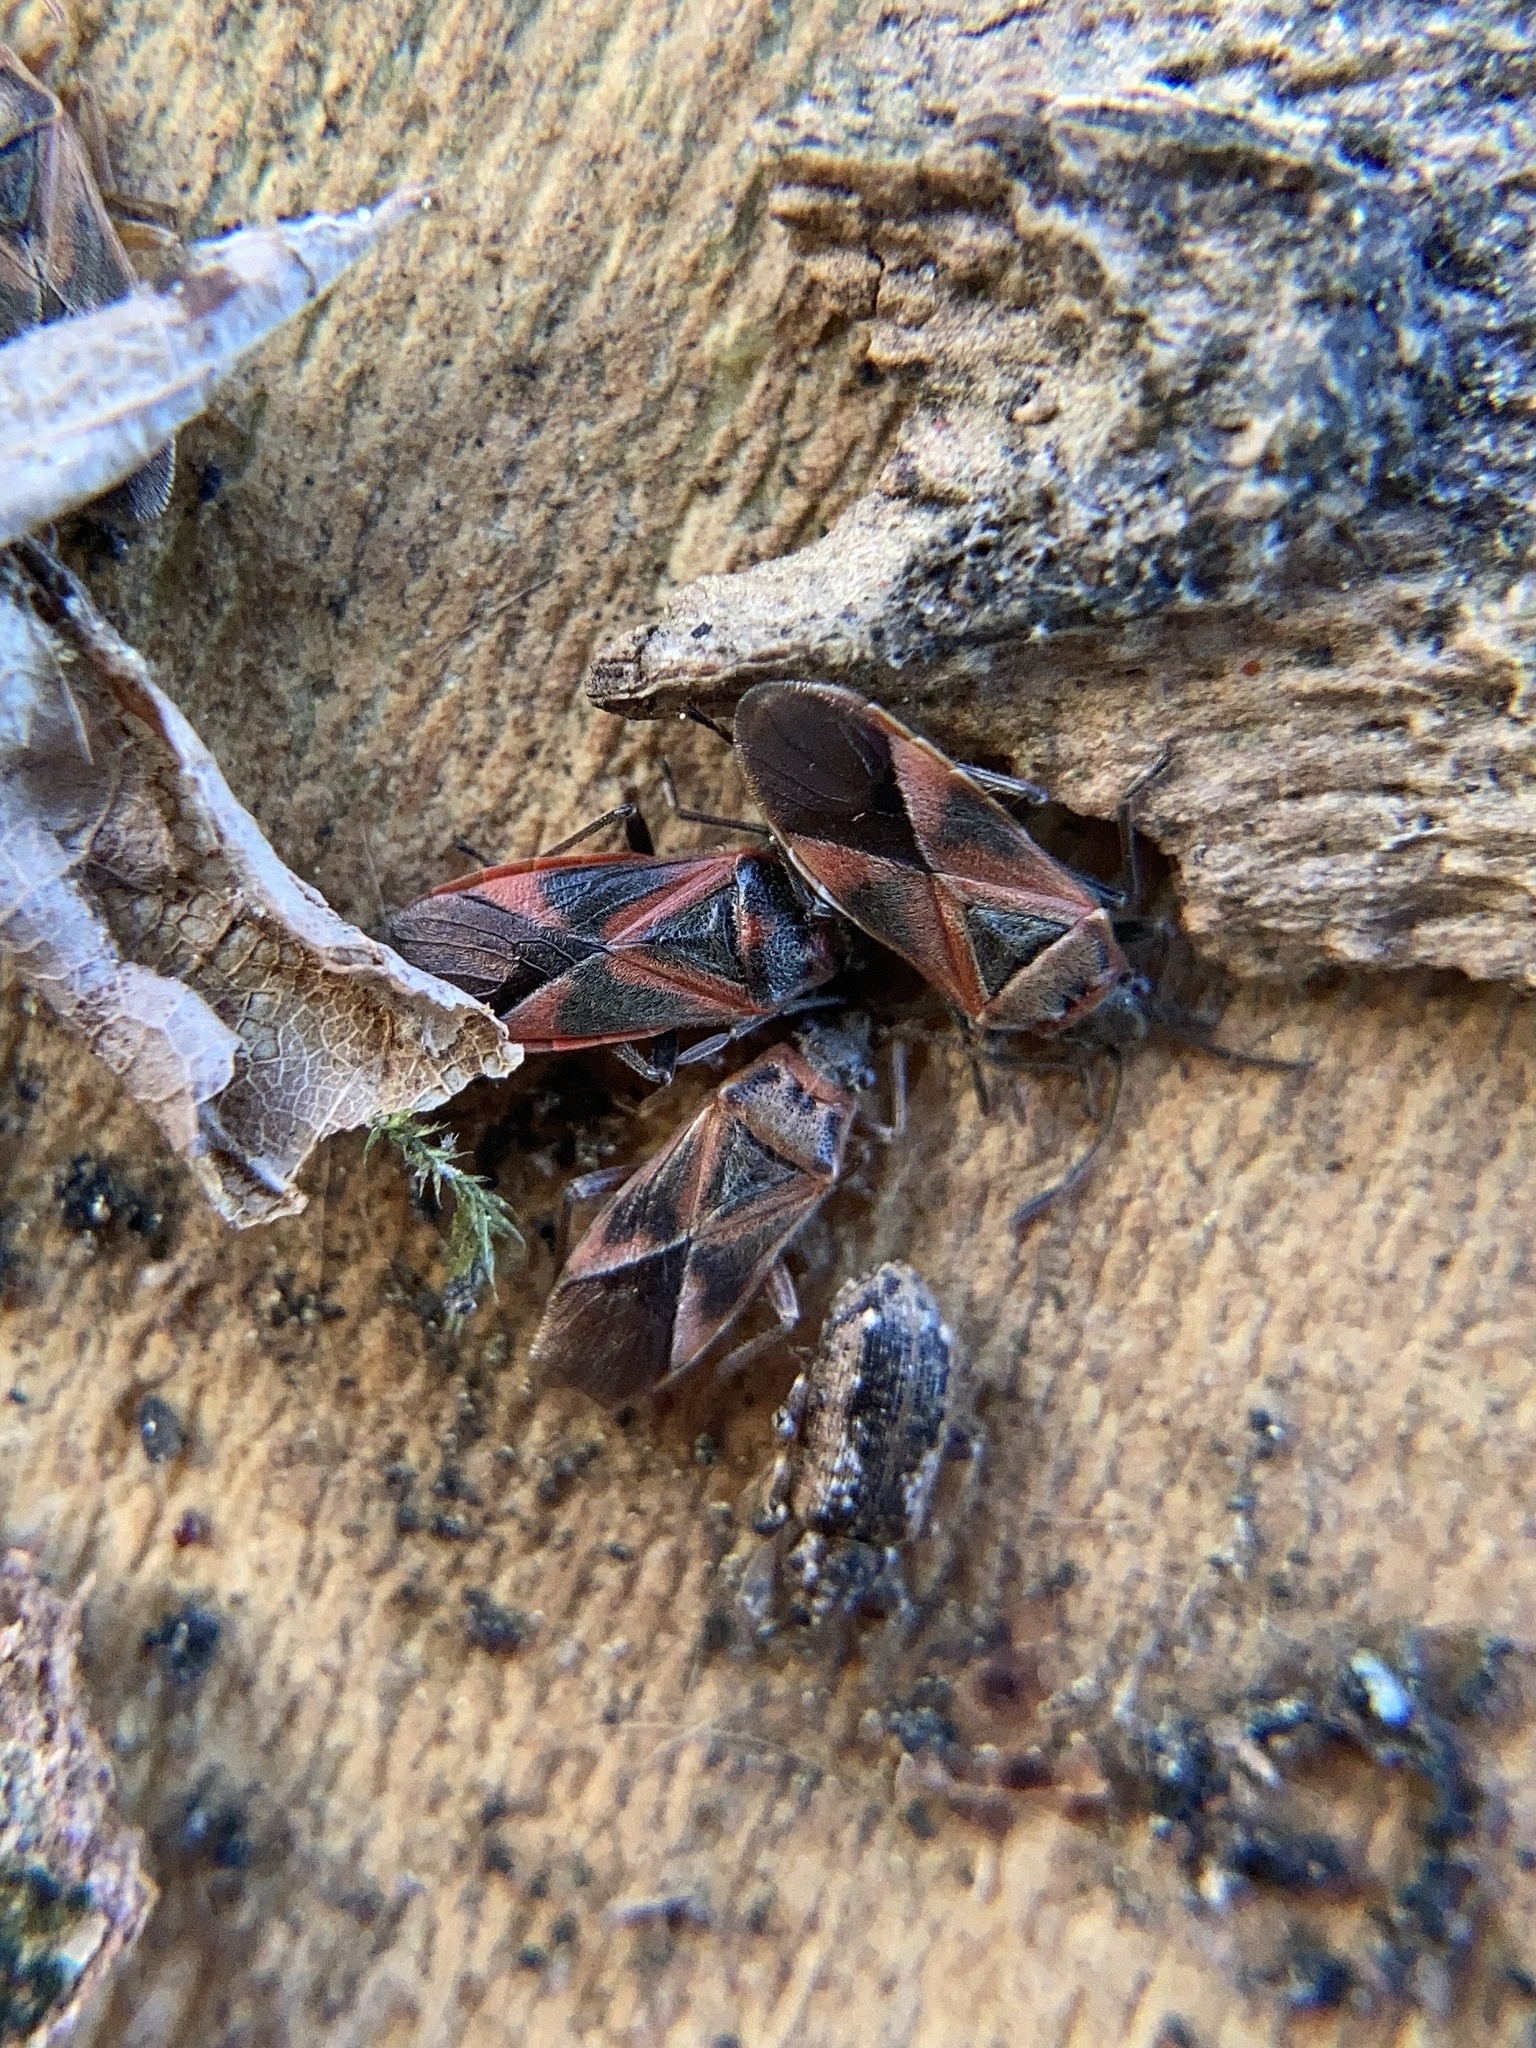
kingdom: Animalia
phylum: Arthropoda
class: Insecta
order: Hemiptera
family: Lygaeidae
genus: Arocatus
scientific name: Arocatus roeselii
